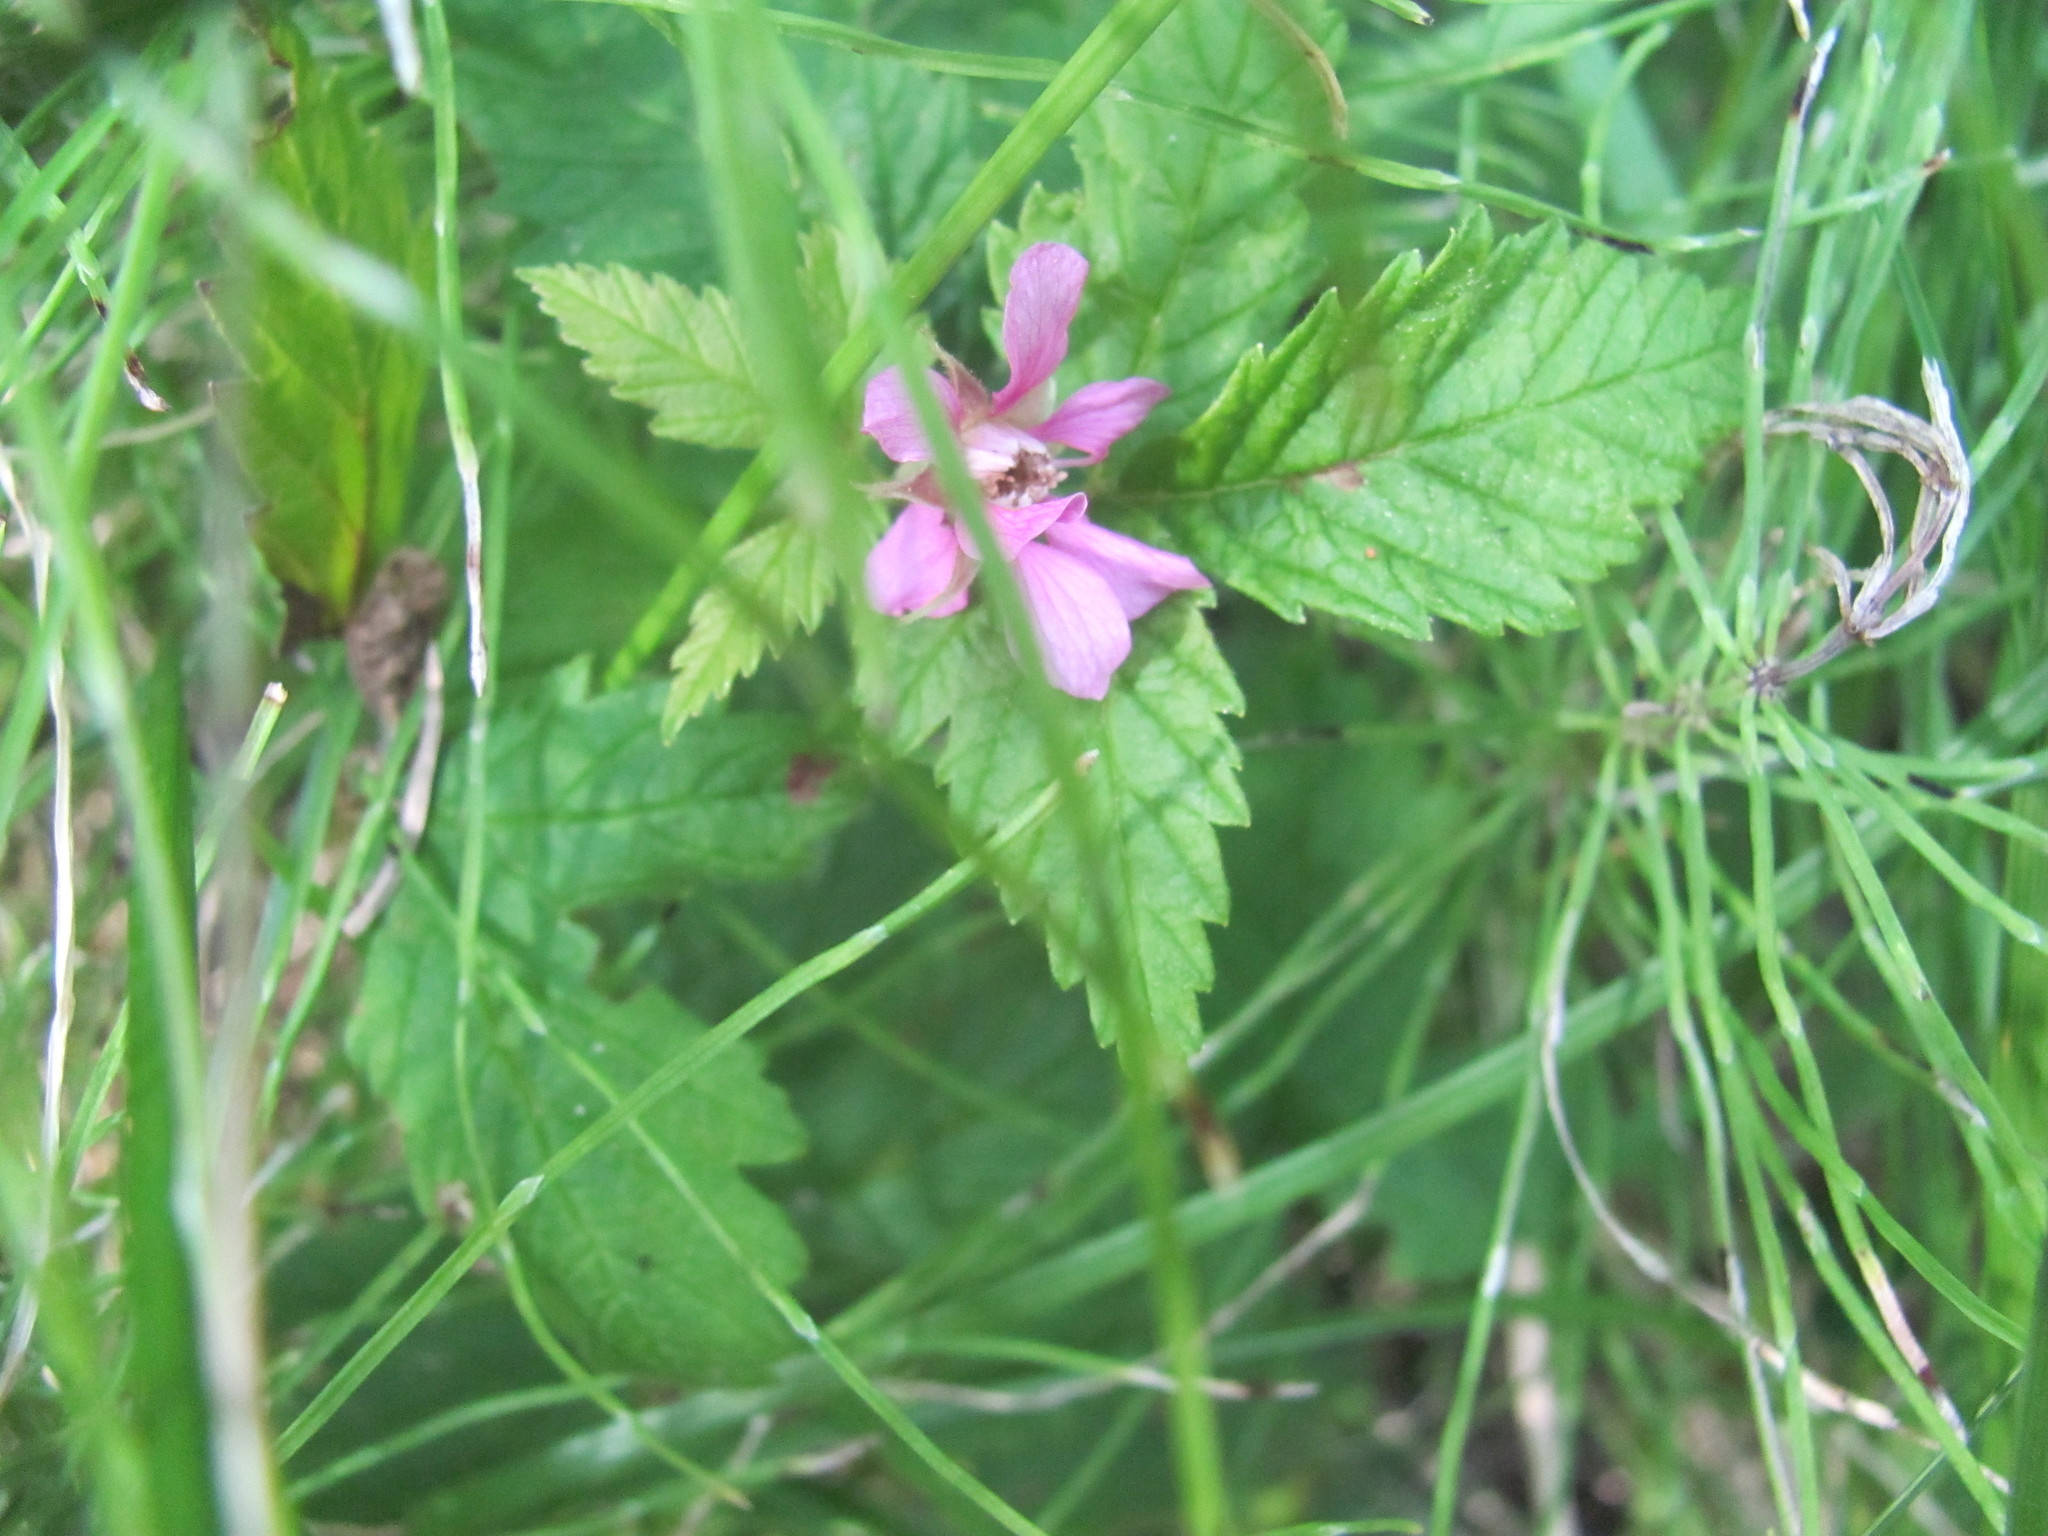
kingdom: Plantae
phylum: Tracheophyta
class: Magnoliopsida
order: Rosales
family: Rosaceae
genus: Rubus
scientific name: Rubus arcticus
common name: Arctic bramble
